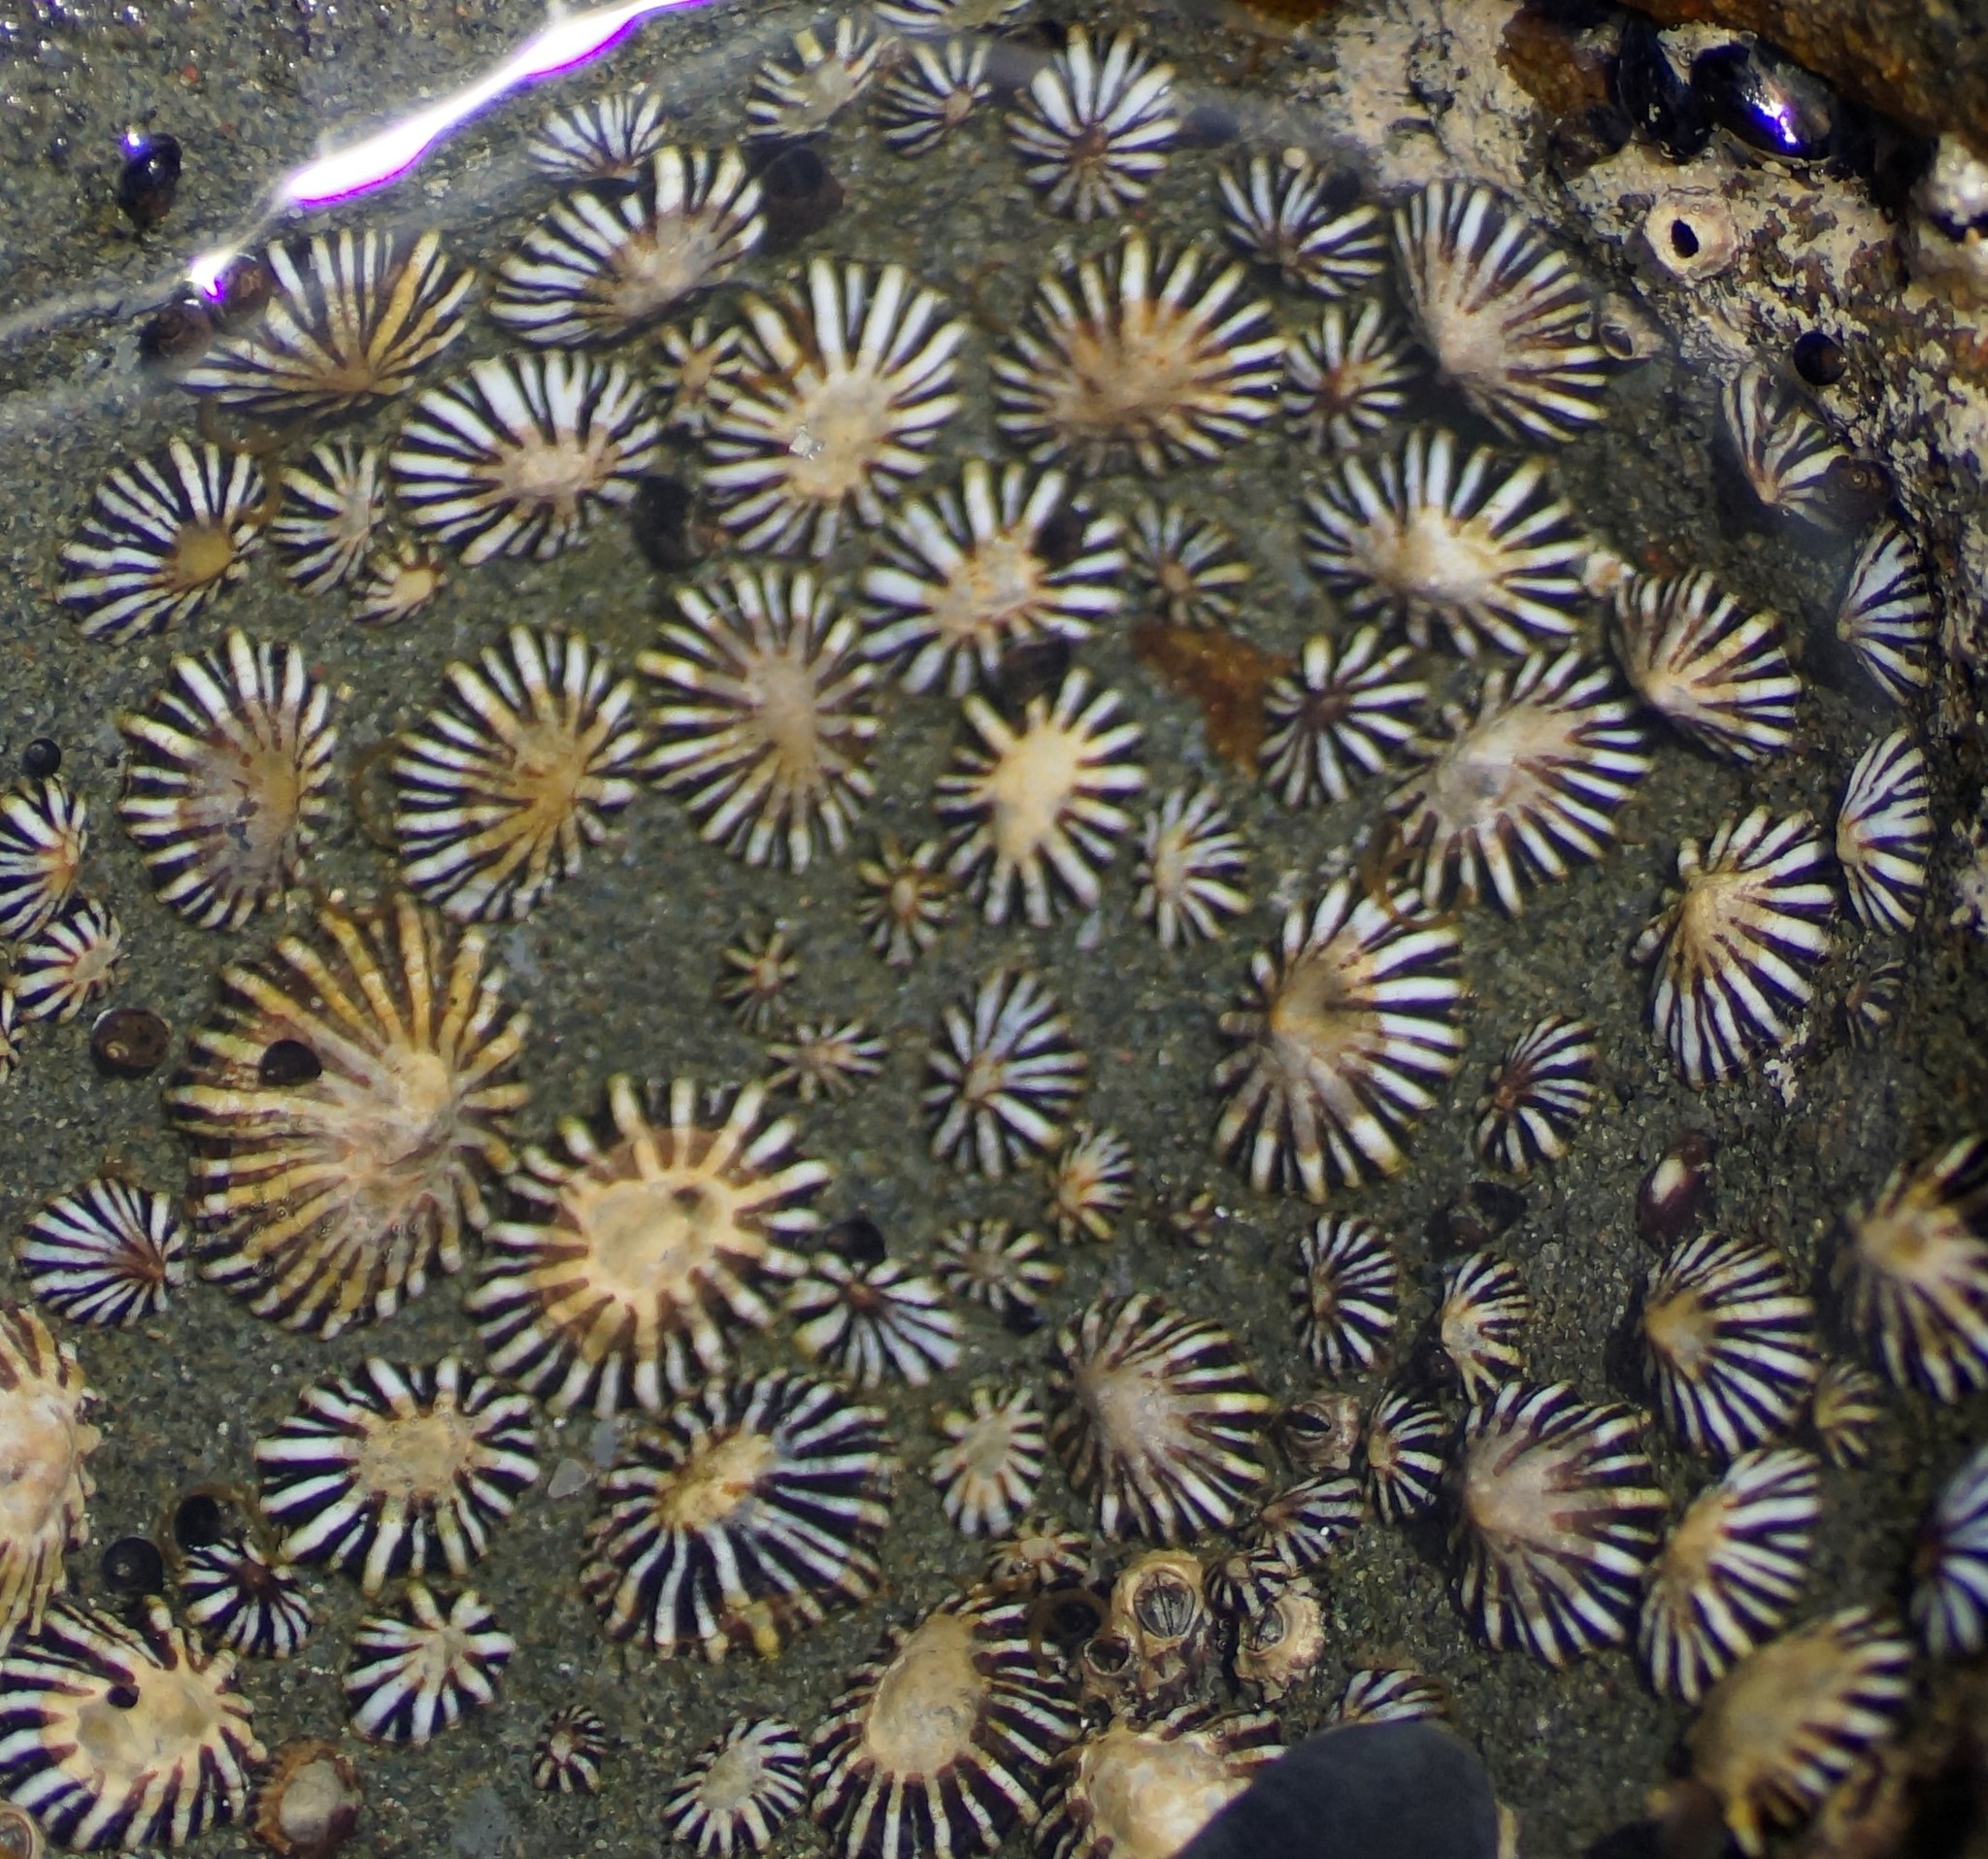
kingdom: Animalia
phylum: Mollusca
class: Gastropoda
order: Siphonariida
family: Siphonariidae
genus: Siphonaria
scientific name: Siphonaria diemenensis
